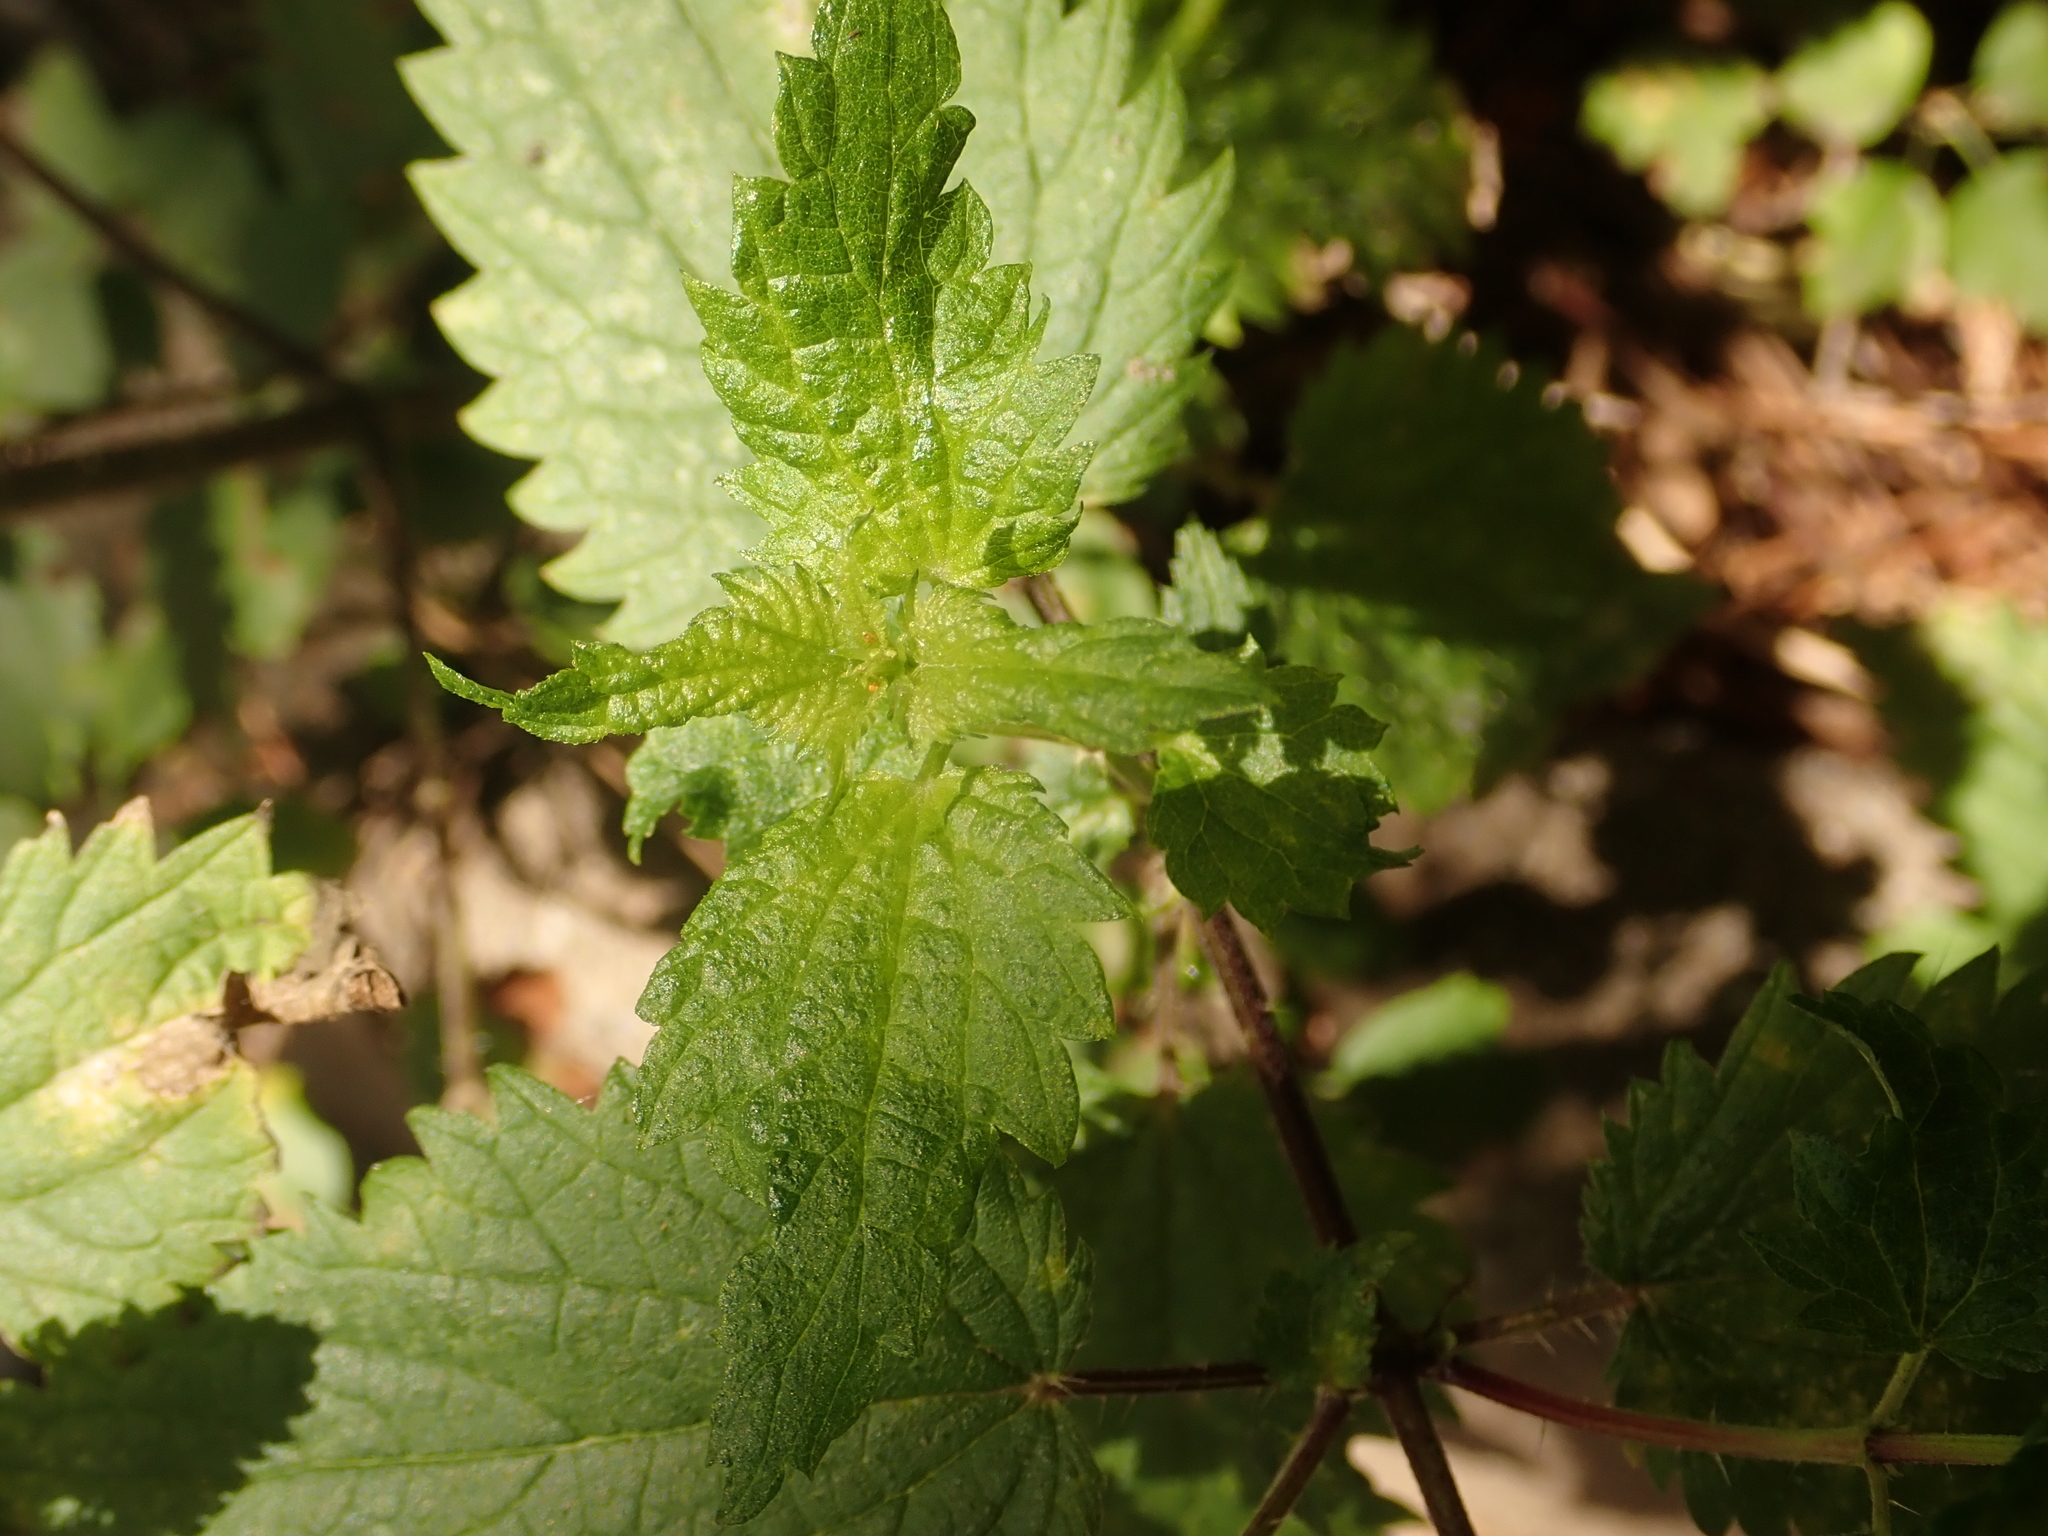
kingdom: Plantae
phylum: Tracheophyta
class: Magnoliopsida
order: Rosales
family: Urticaceae
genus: Urtica
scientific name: Urtica dioica
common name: Common nettle
